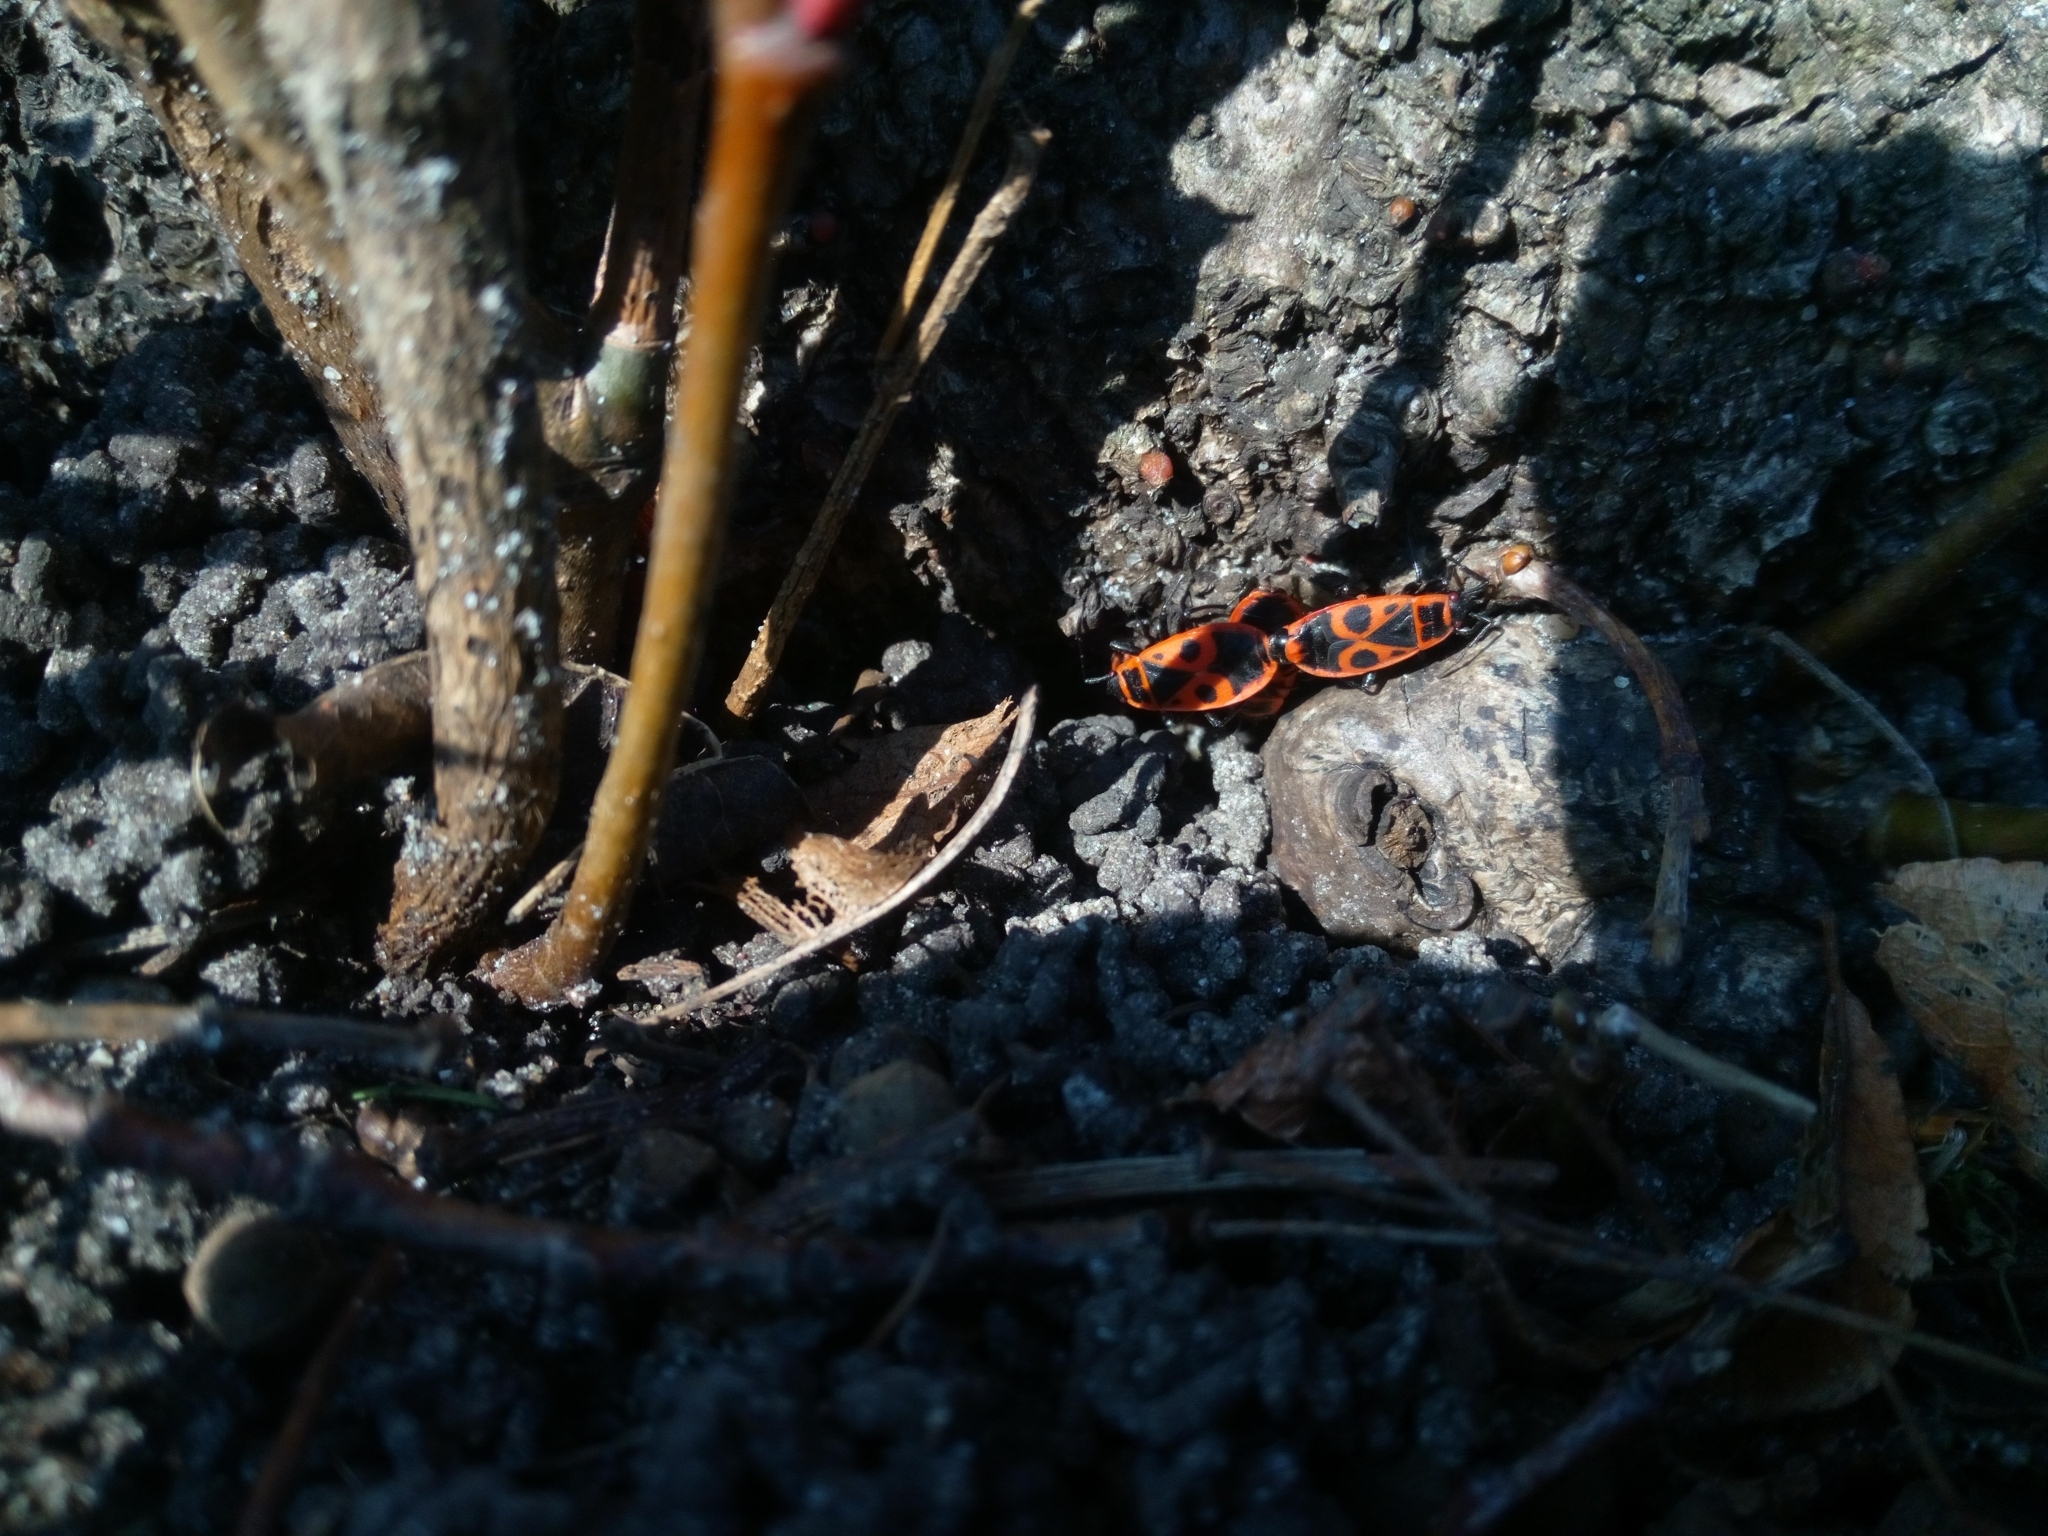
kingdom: Animalia
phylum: Arthropoda
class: Insecta
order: Hemiptera
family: Pyrrhocoridae
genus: Pyrrhocoris
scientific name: Pyrrhocoris apterus
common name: Firebug
